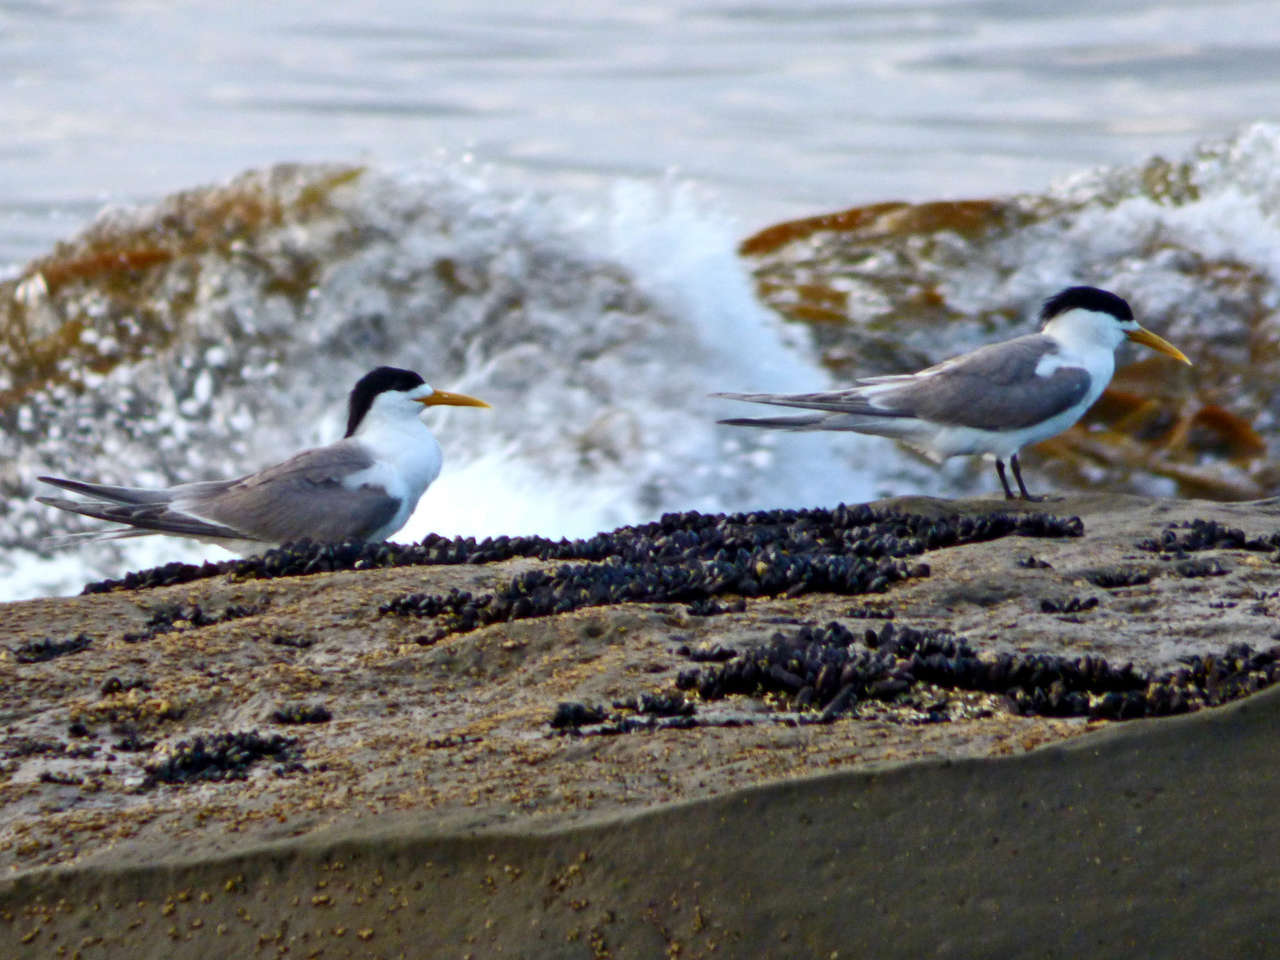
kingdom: Animalia
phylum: Chordata
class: Aves
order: Charadriiformes
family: Laridae
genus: Thalasseus
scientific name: Thalasseus bergii
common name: Greater crested tern
